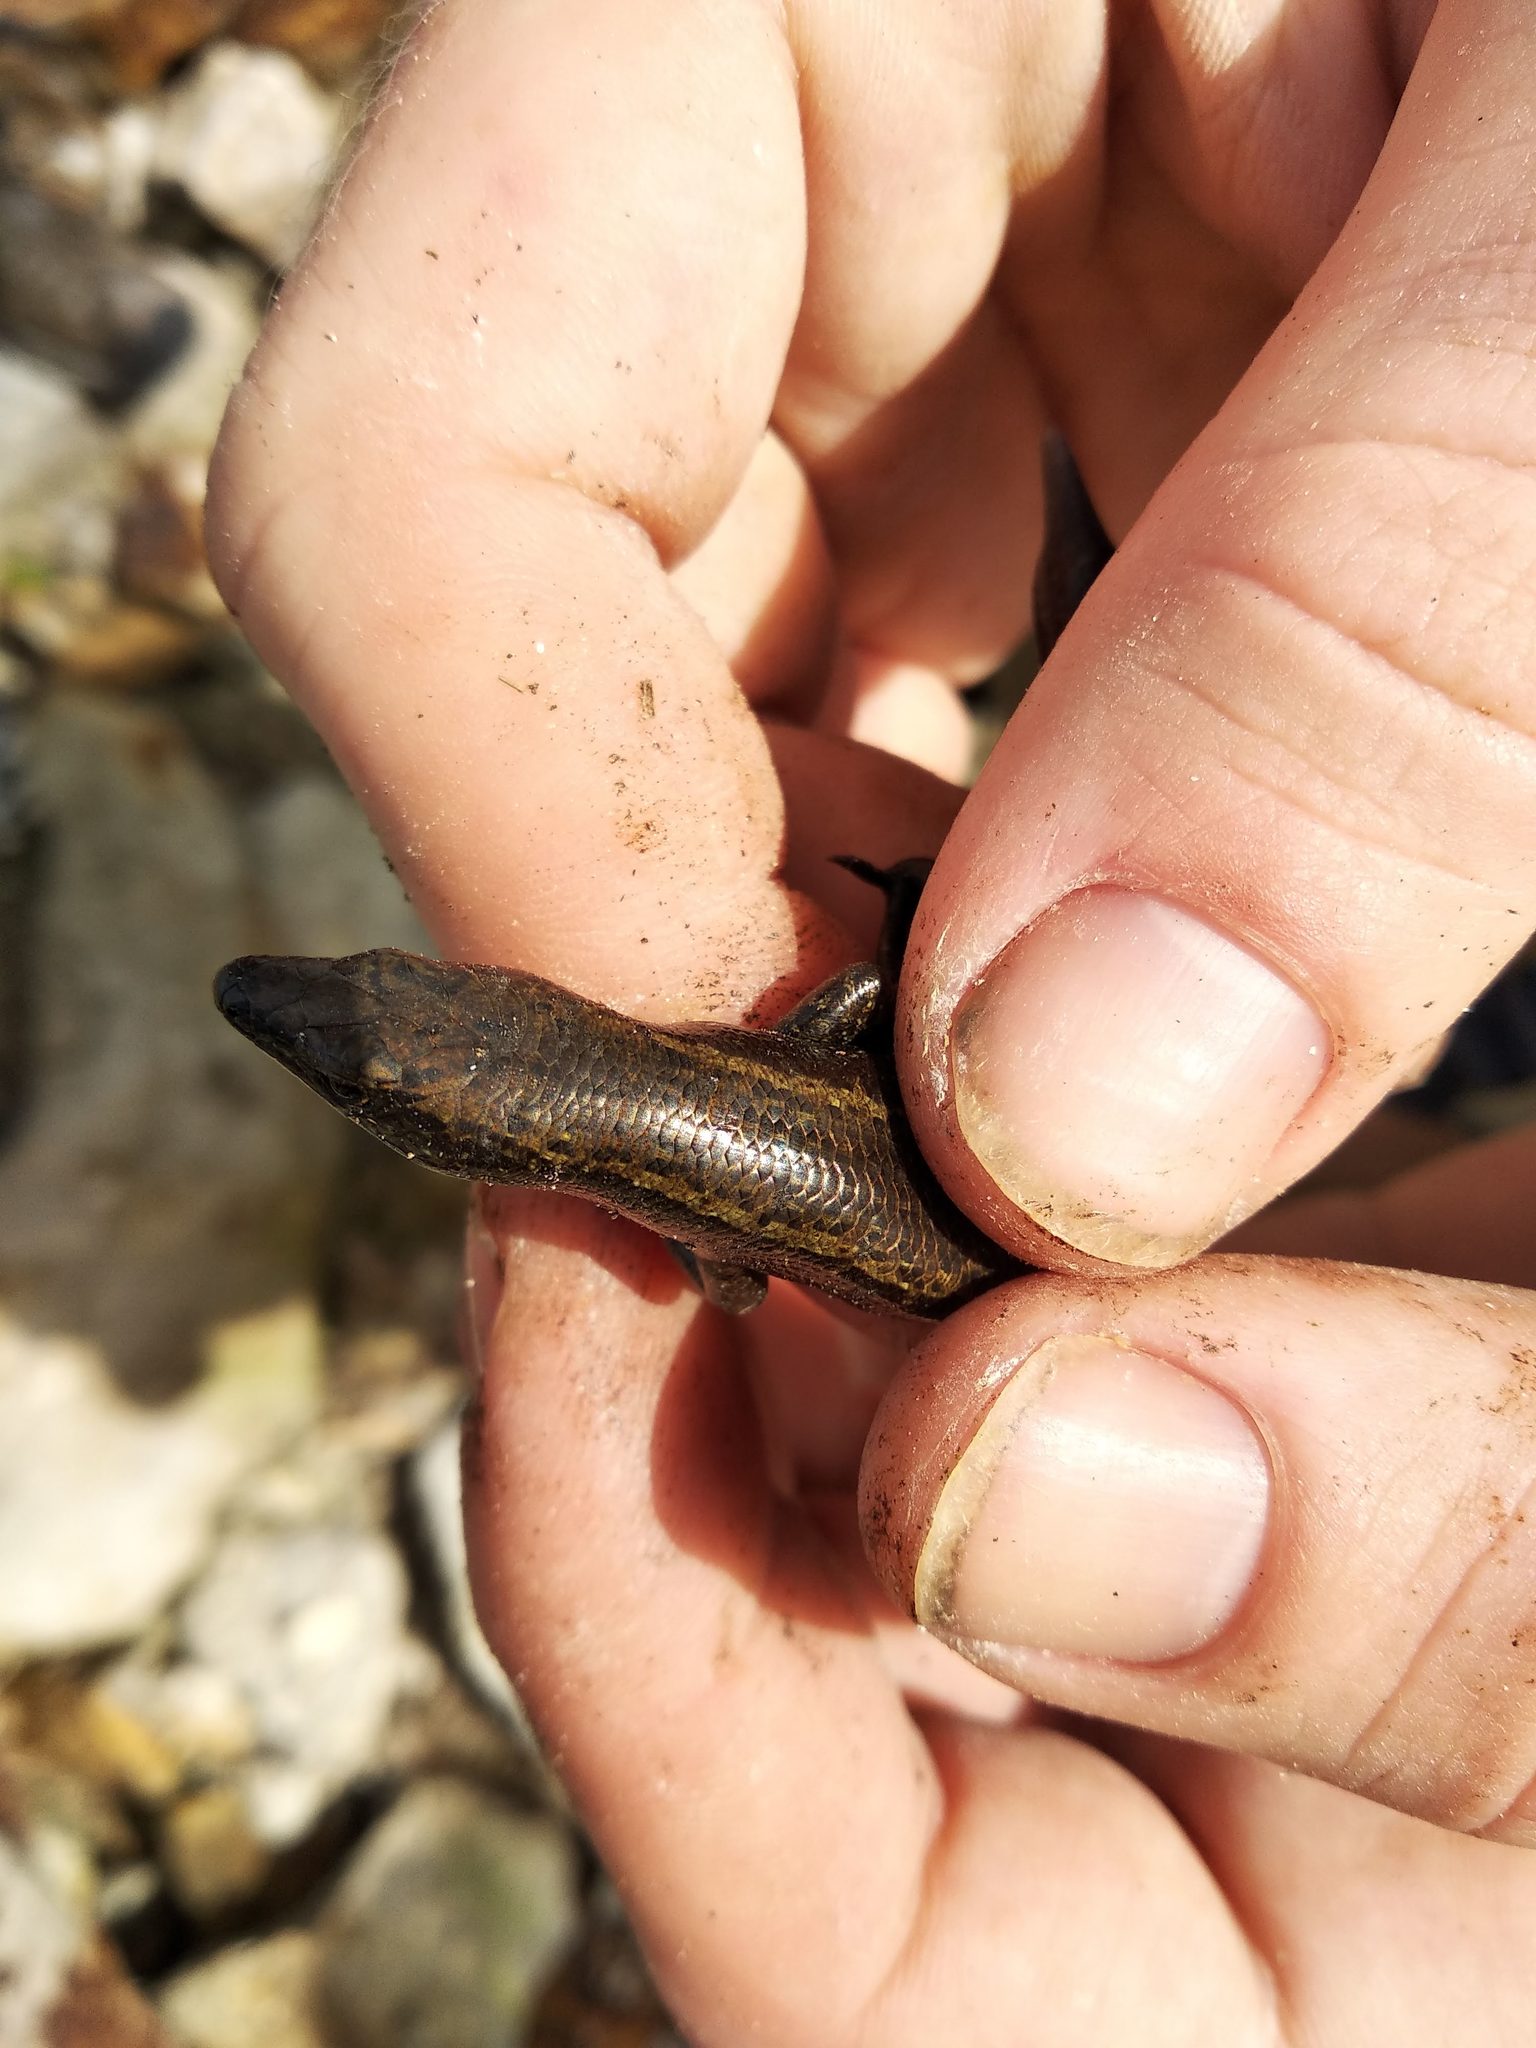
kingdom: Animalia
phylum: Chordata
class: Squamata
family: Scincidae
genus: Oligosoma
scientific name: Oligosoma smithi
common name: Shore skink
